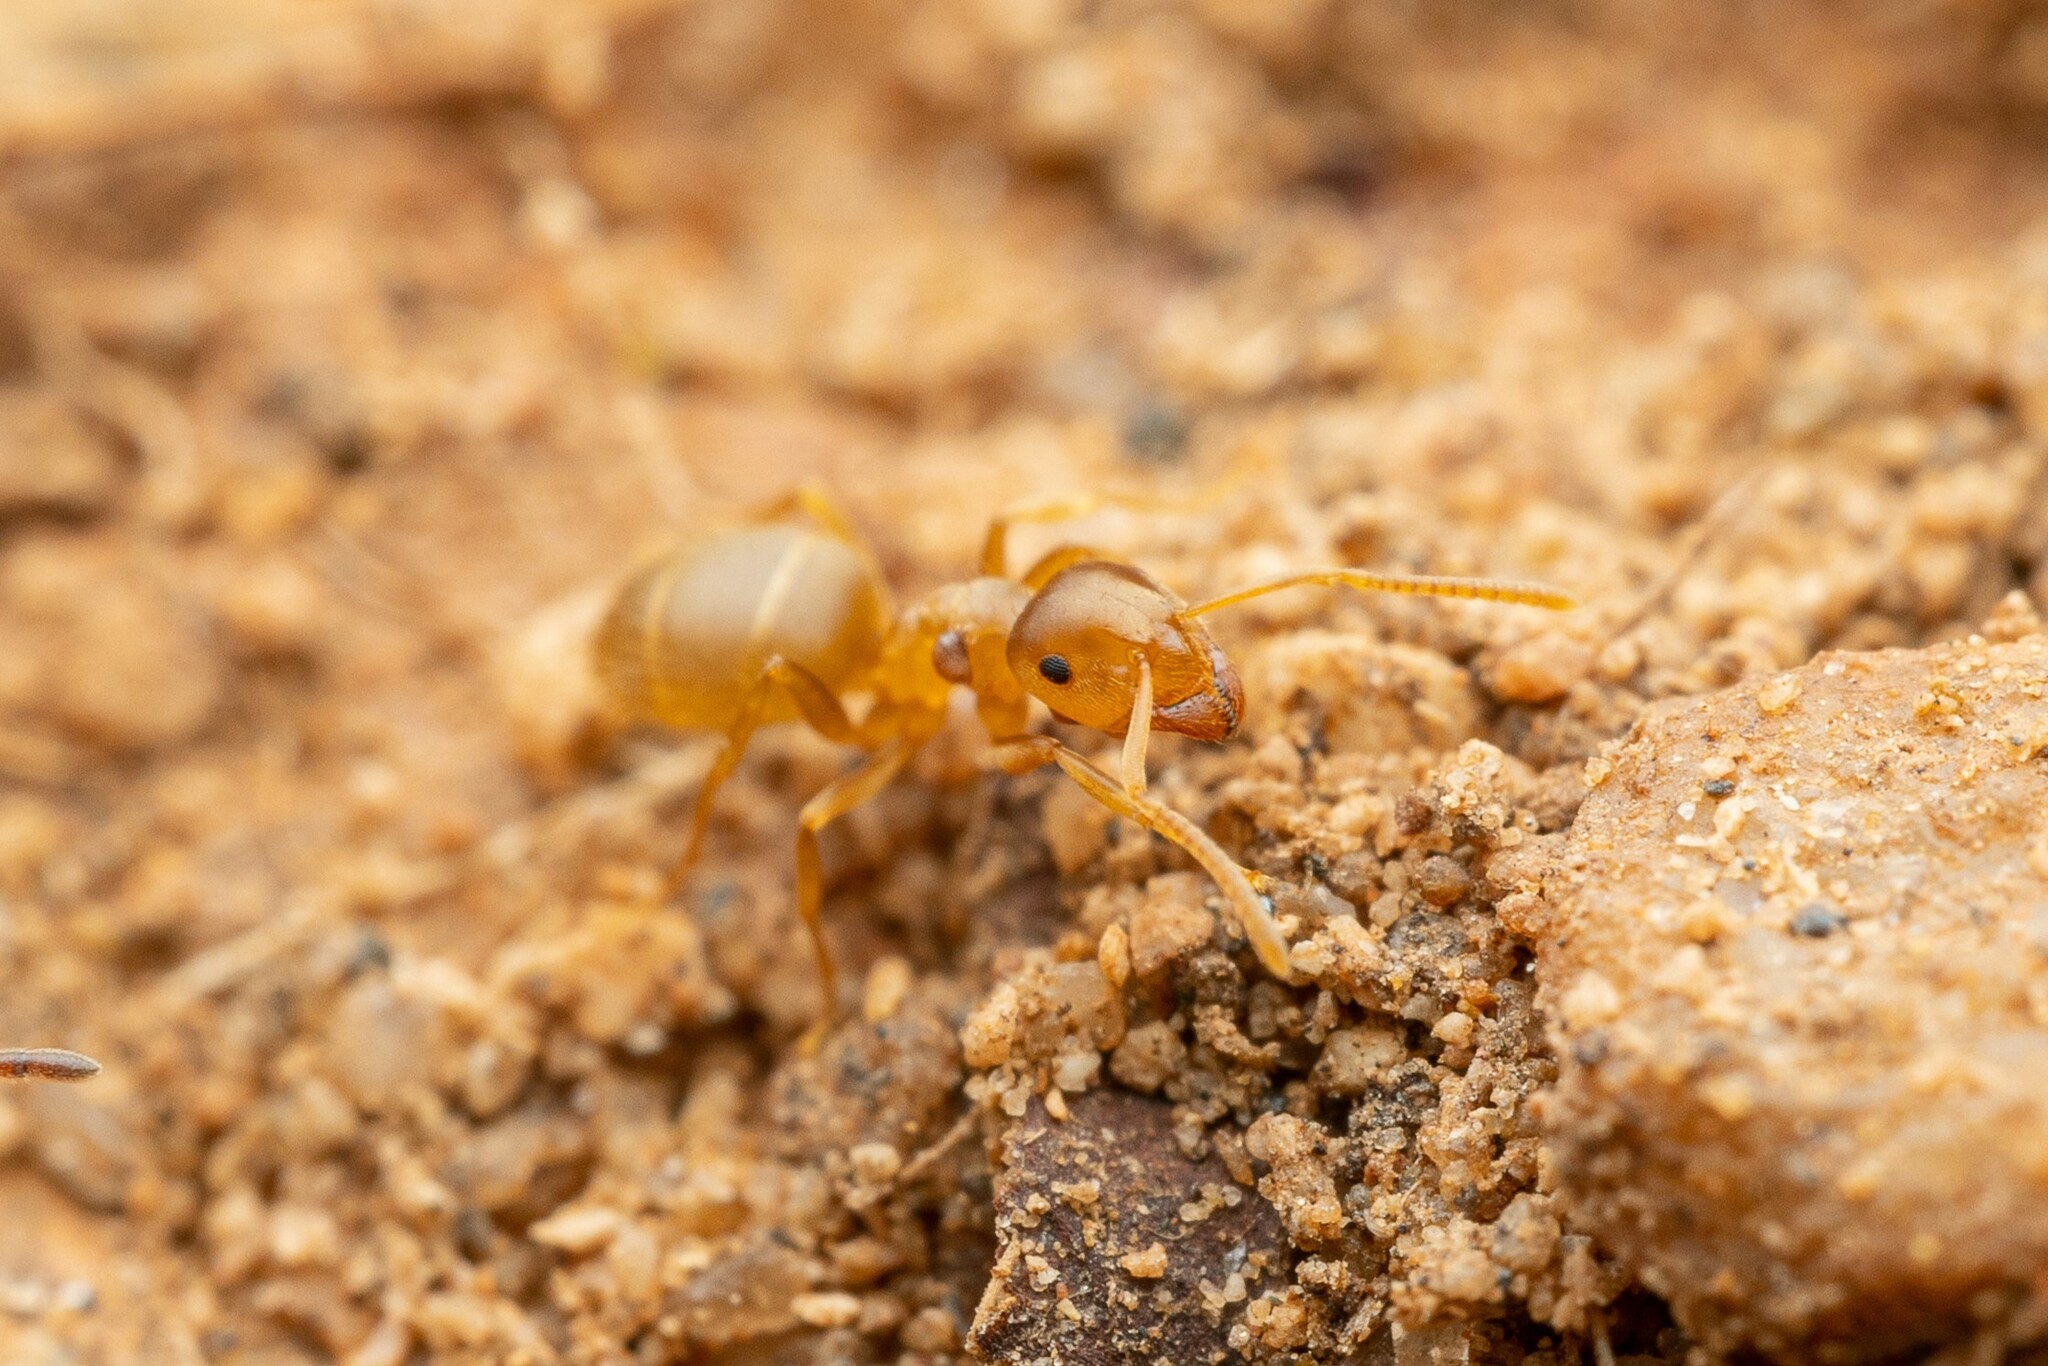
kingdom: Animalia
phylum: Arthropoda
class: Insecta
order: Hymenoptera
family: Formicidae
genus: Lasius
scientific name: Lasius sitiens
